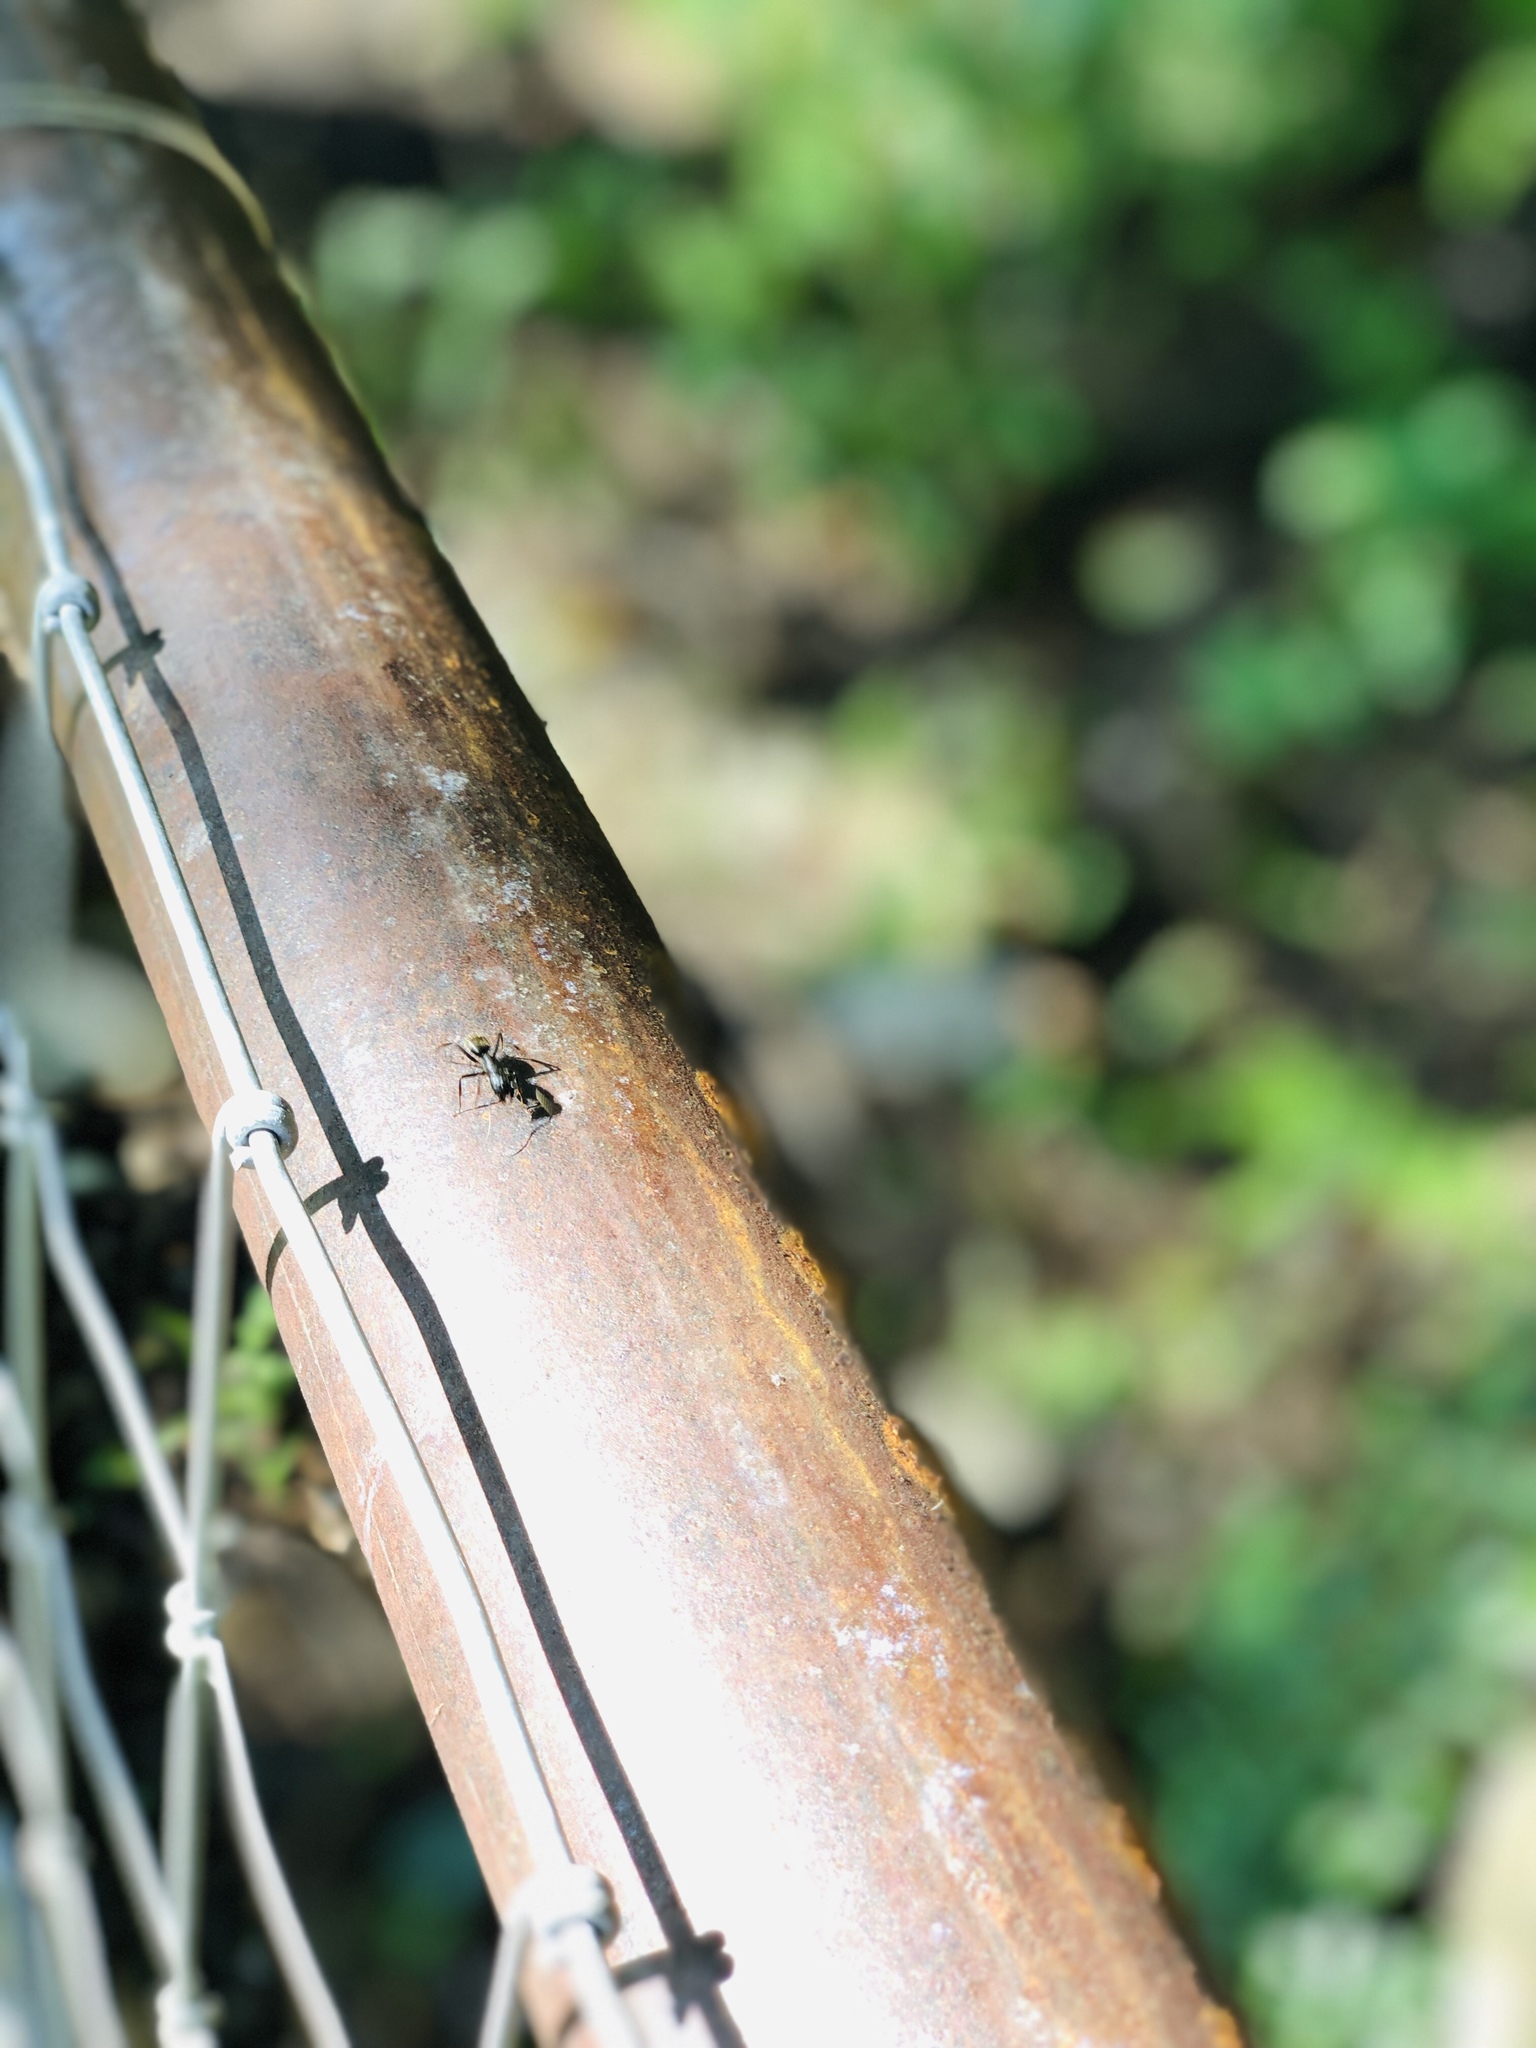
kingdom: Animalia
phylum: Arthropoda
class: Insecta
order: Hymenoptera
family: Formicidae
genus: Camponotus
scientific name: Camponotus pennsylvanicus
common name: Black carpenter ant
